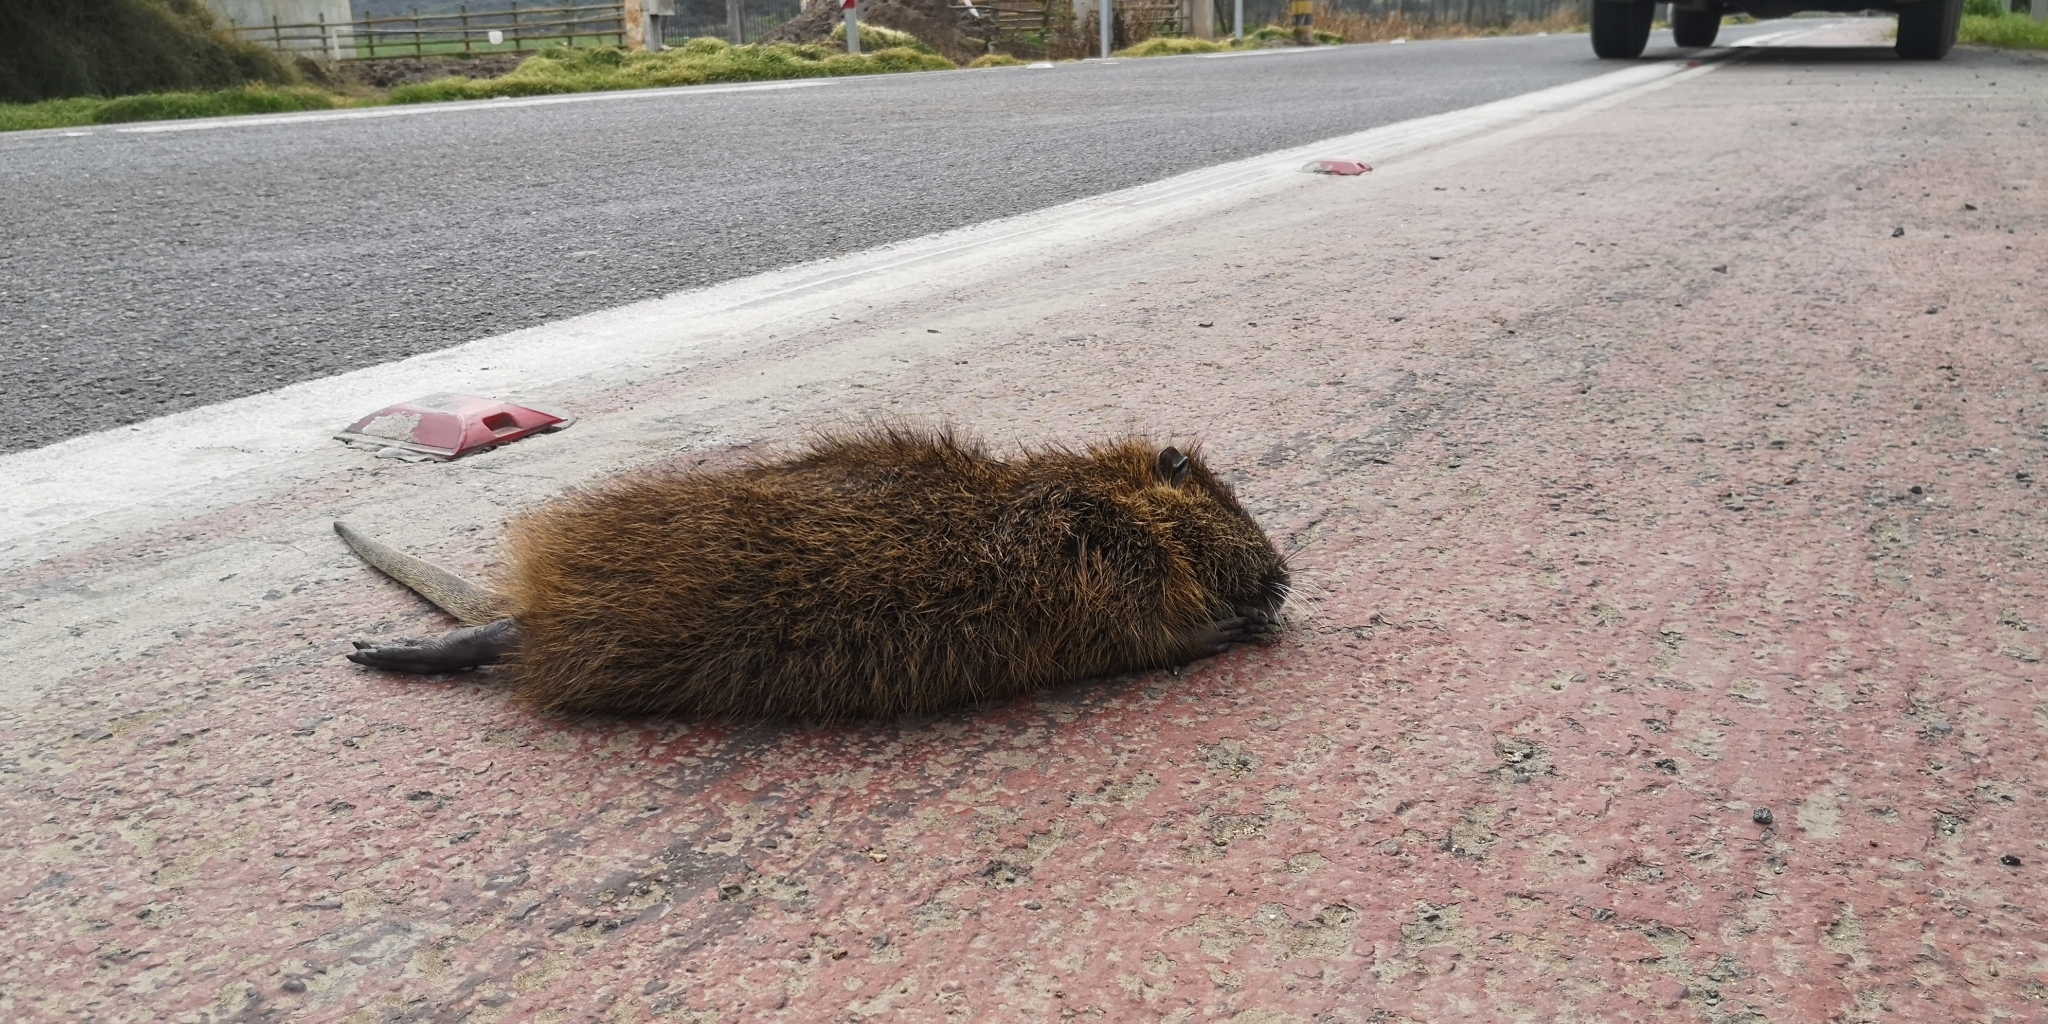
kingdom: Animalia
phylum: Chordata
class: Mammalia
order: Rodentia
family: Myocastoridae
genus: Myocastor
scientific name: Myocastor coypus
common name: Coypu
